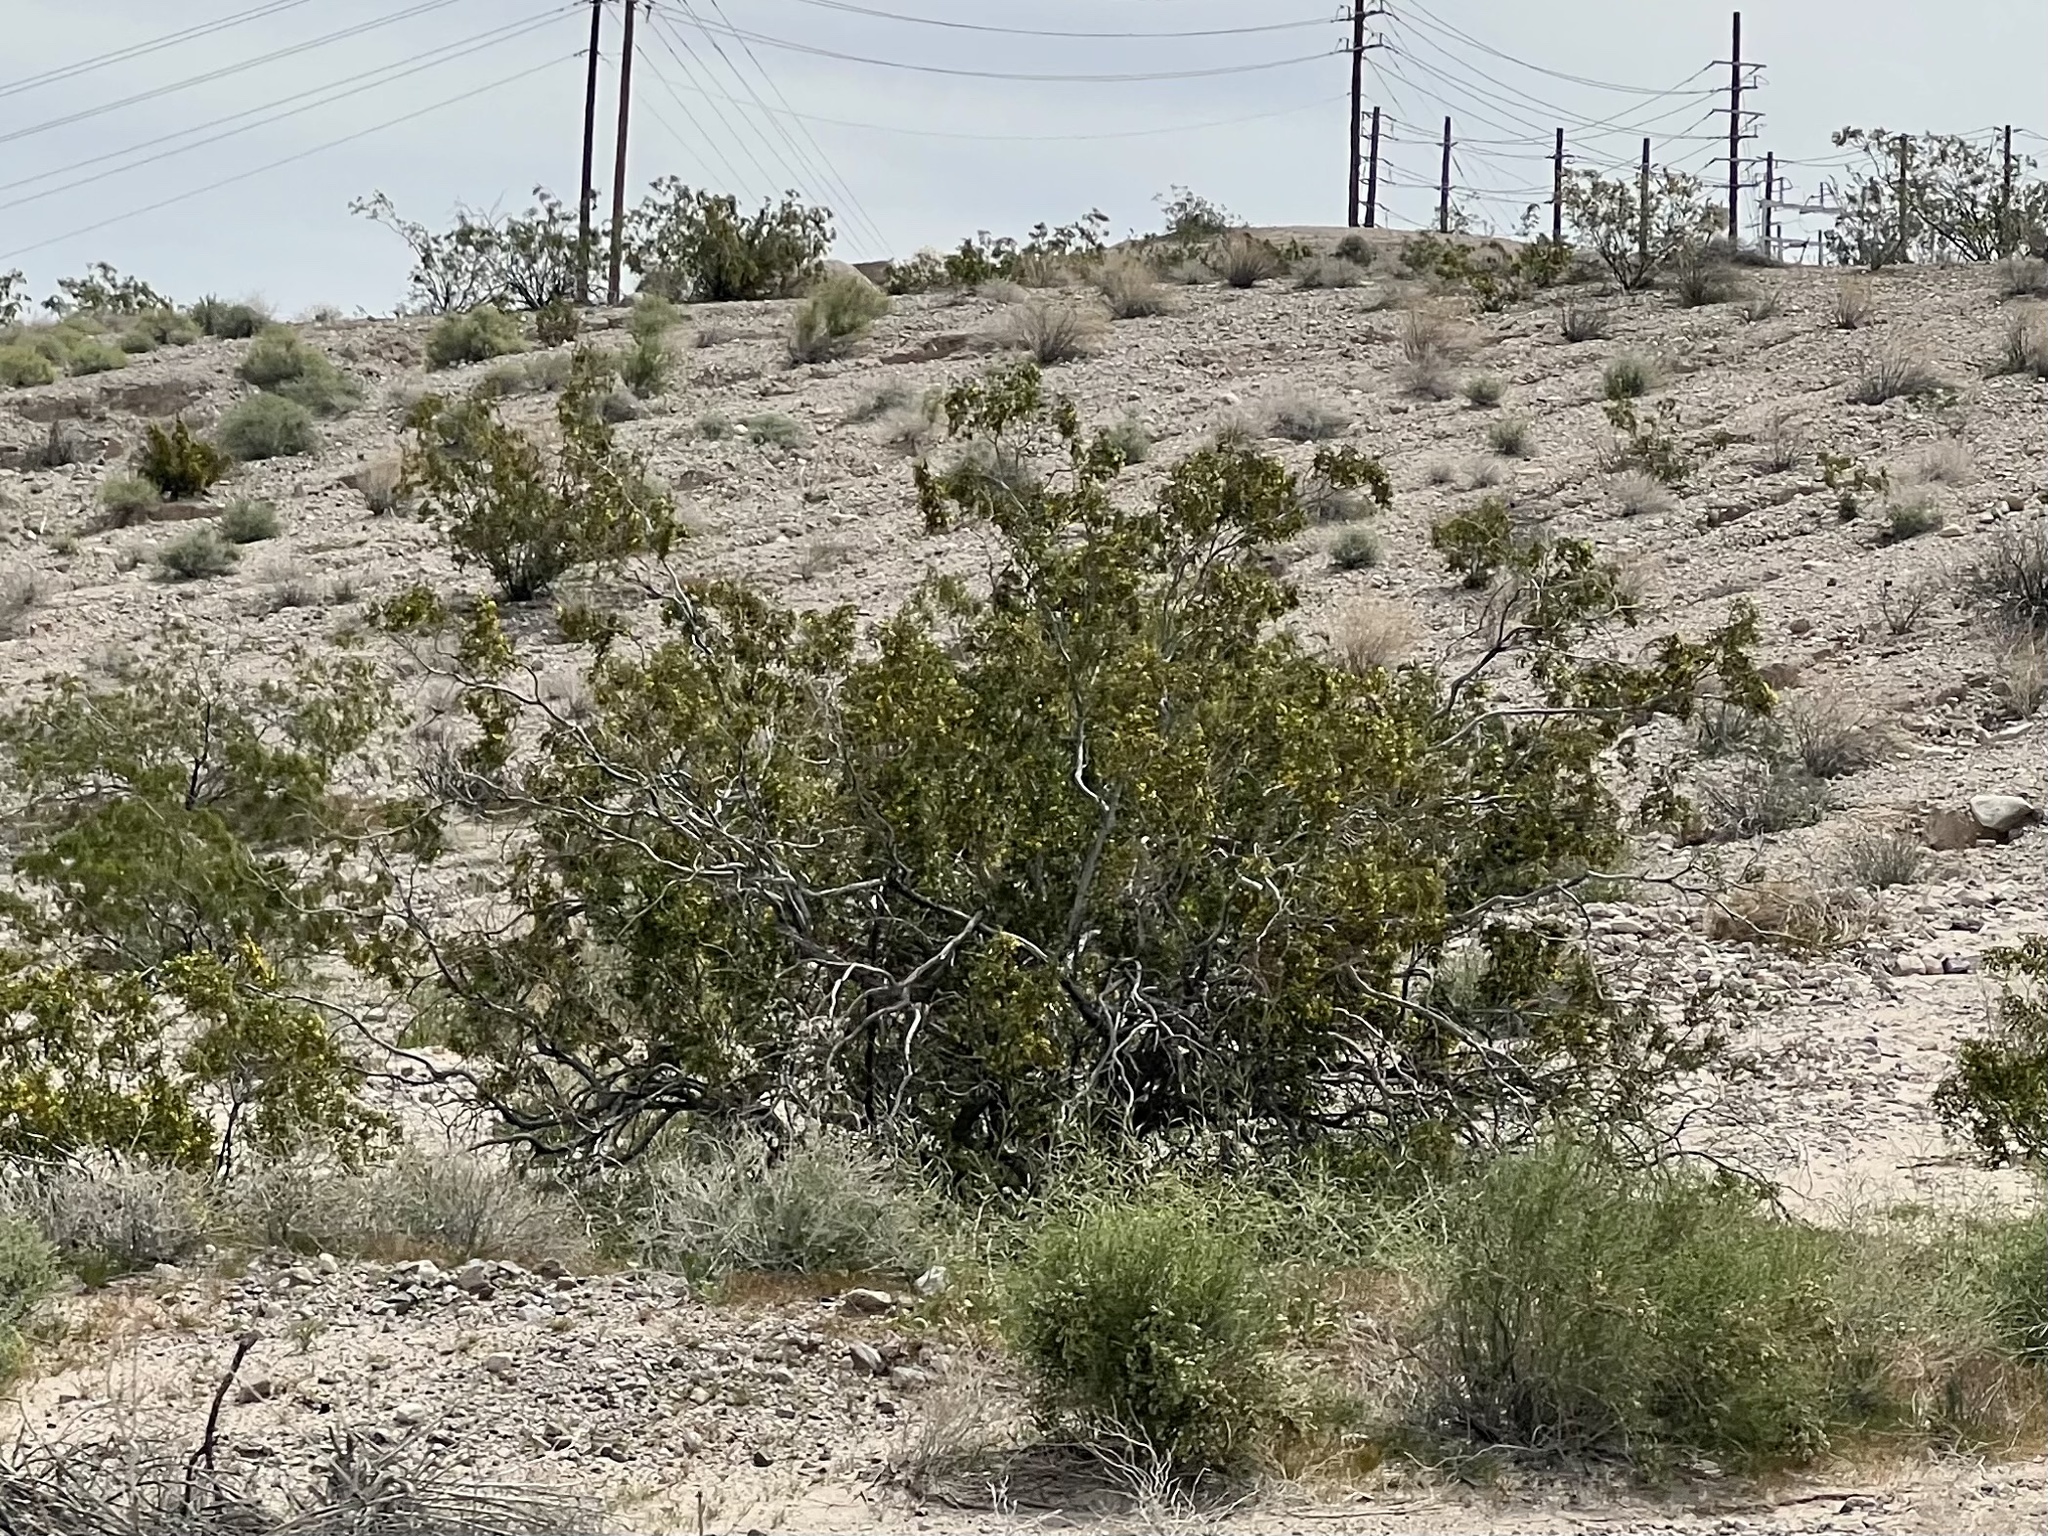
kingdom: Plantae
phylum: Tracheophyta
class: Magnoliopsida
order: Zygophyllales
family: Zygophyllaceae
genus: Larrea
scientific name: Larrea tridentata
